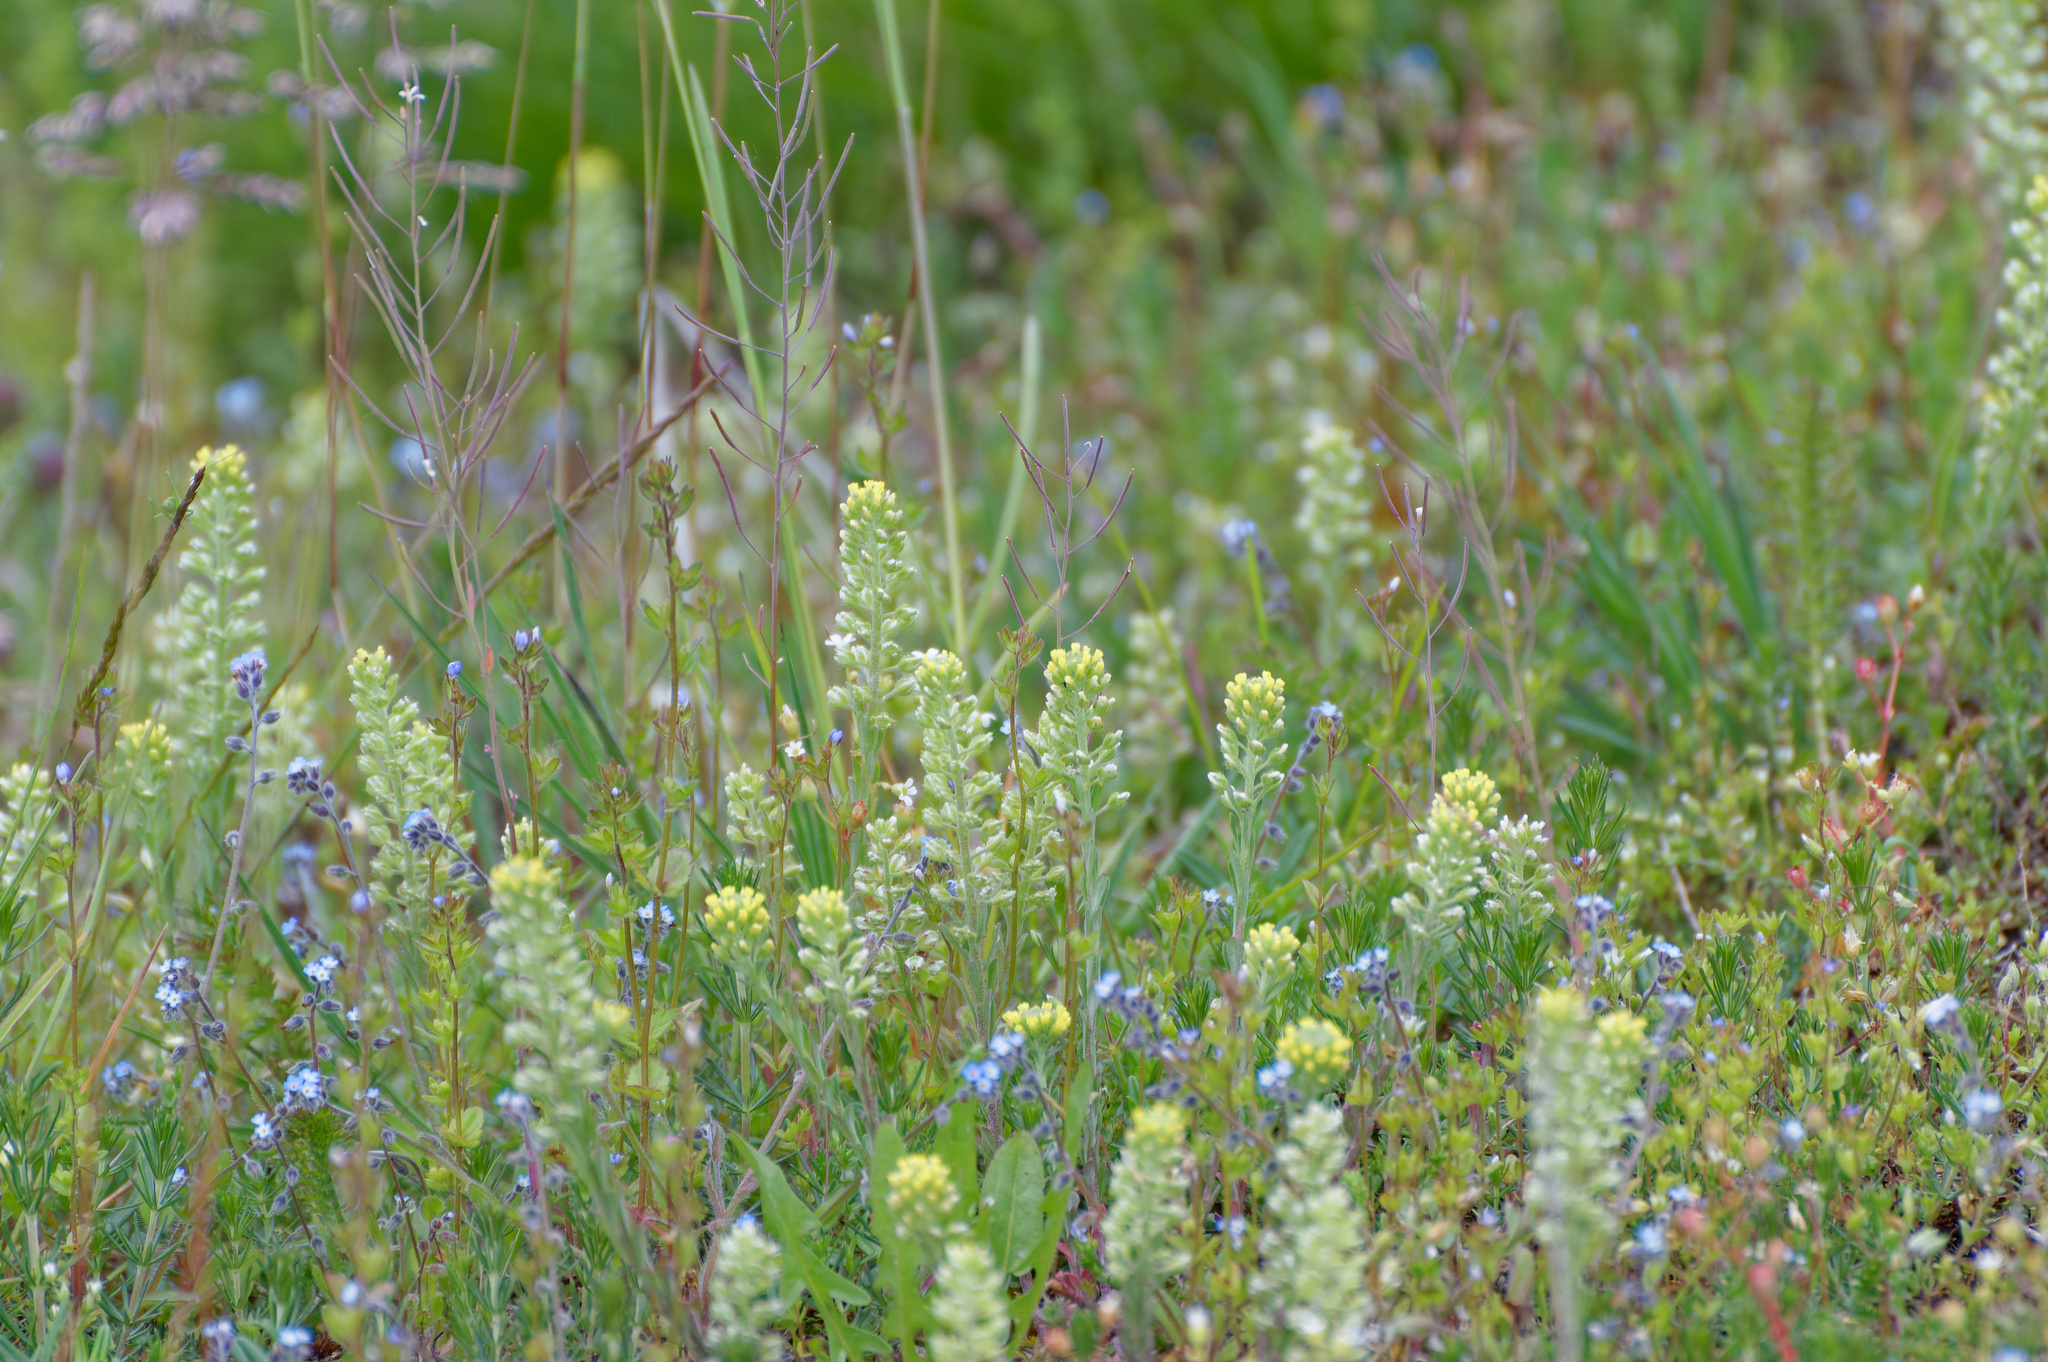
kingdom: Plantae
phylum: Tracheophyta
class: Magnoliopsida
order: Brassicales
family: Brassicaceae
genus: Alyssum
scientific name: Alyssum alyssoides
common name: Small alison
